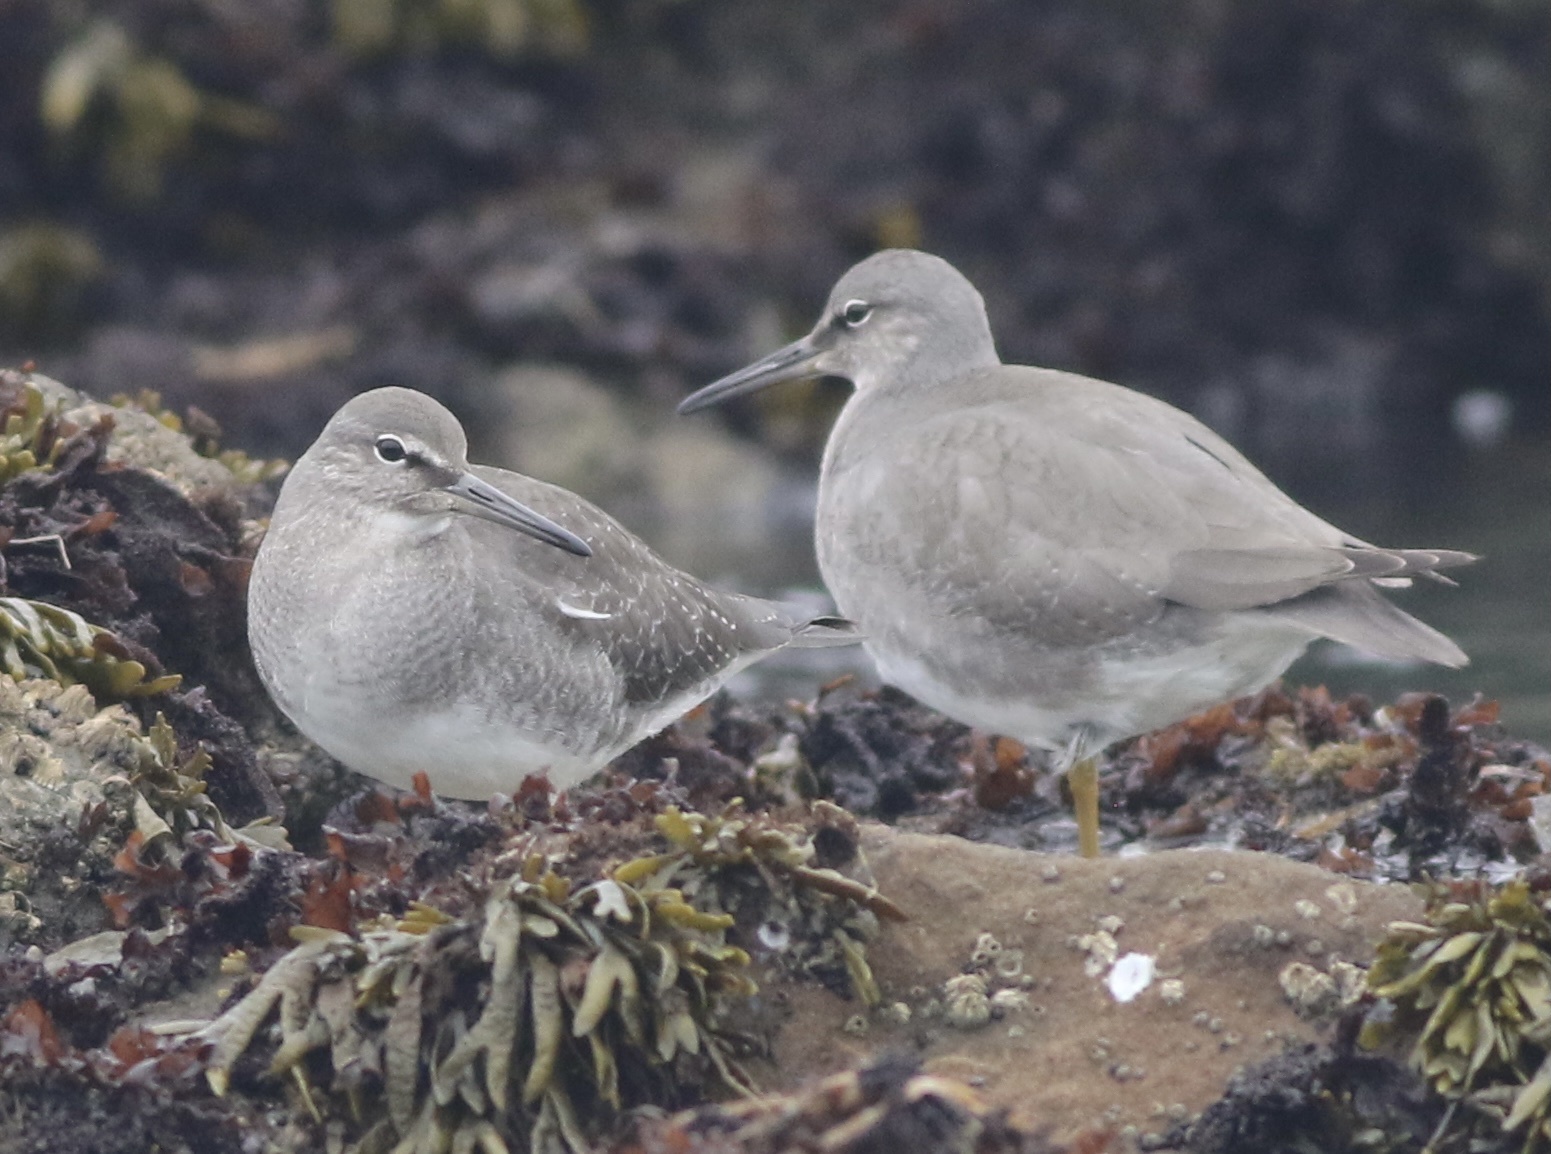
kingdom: Animalia
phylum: Chordata
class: Aves
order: Charadriiformes
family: Scolopacidae
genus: Tringa
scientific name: Tringa incana
